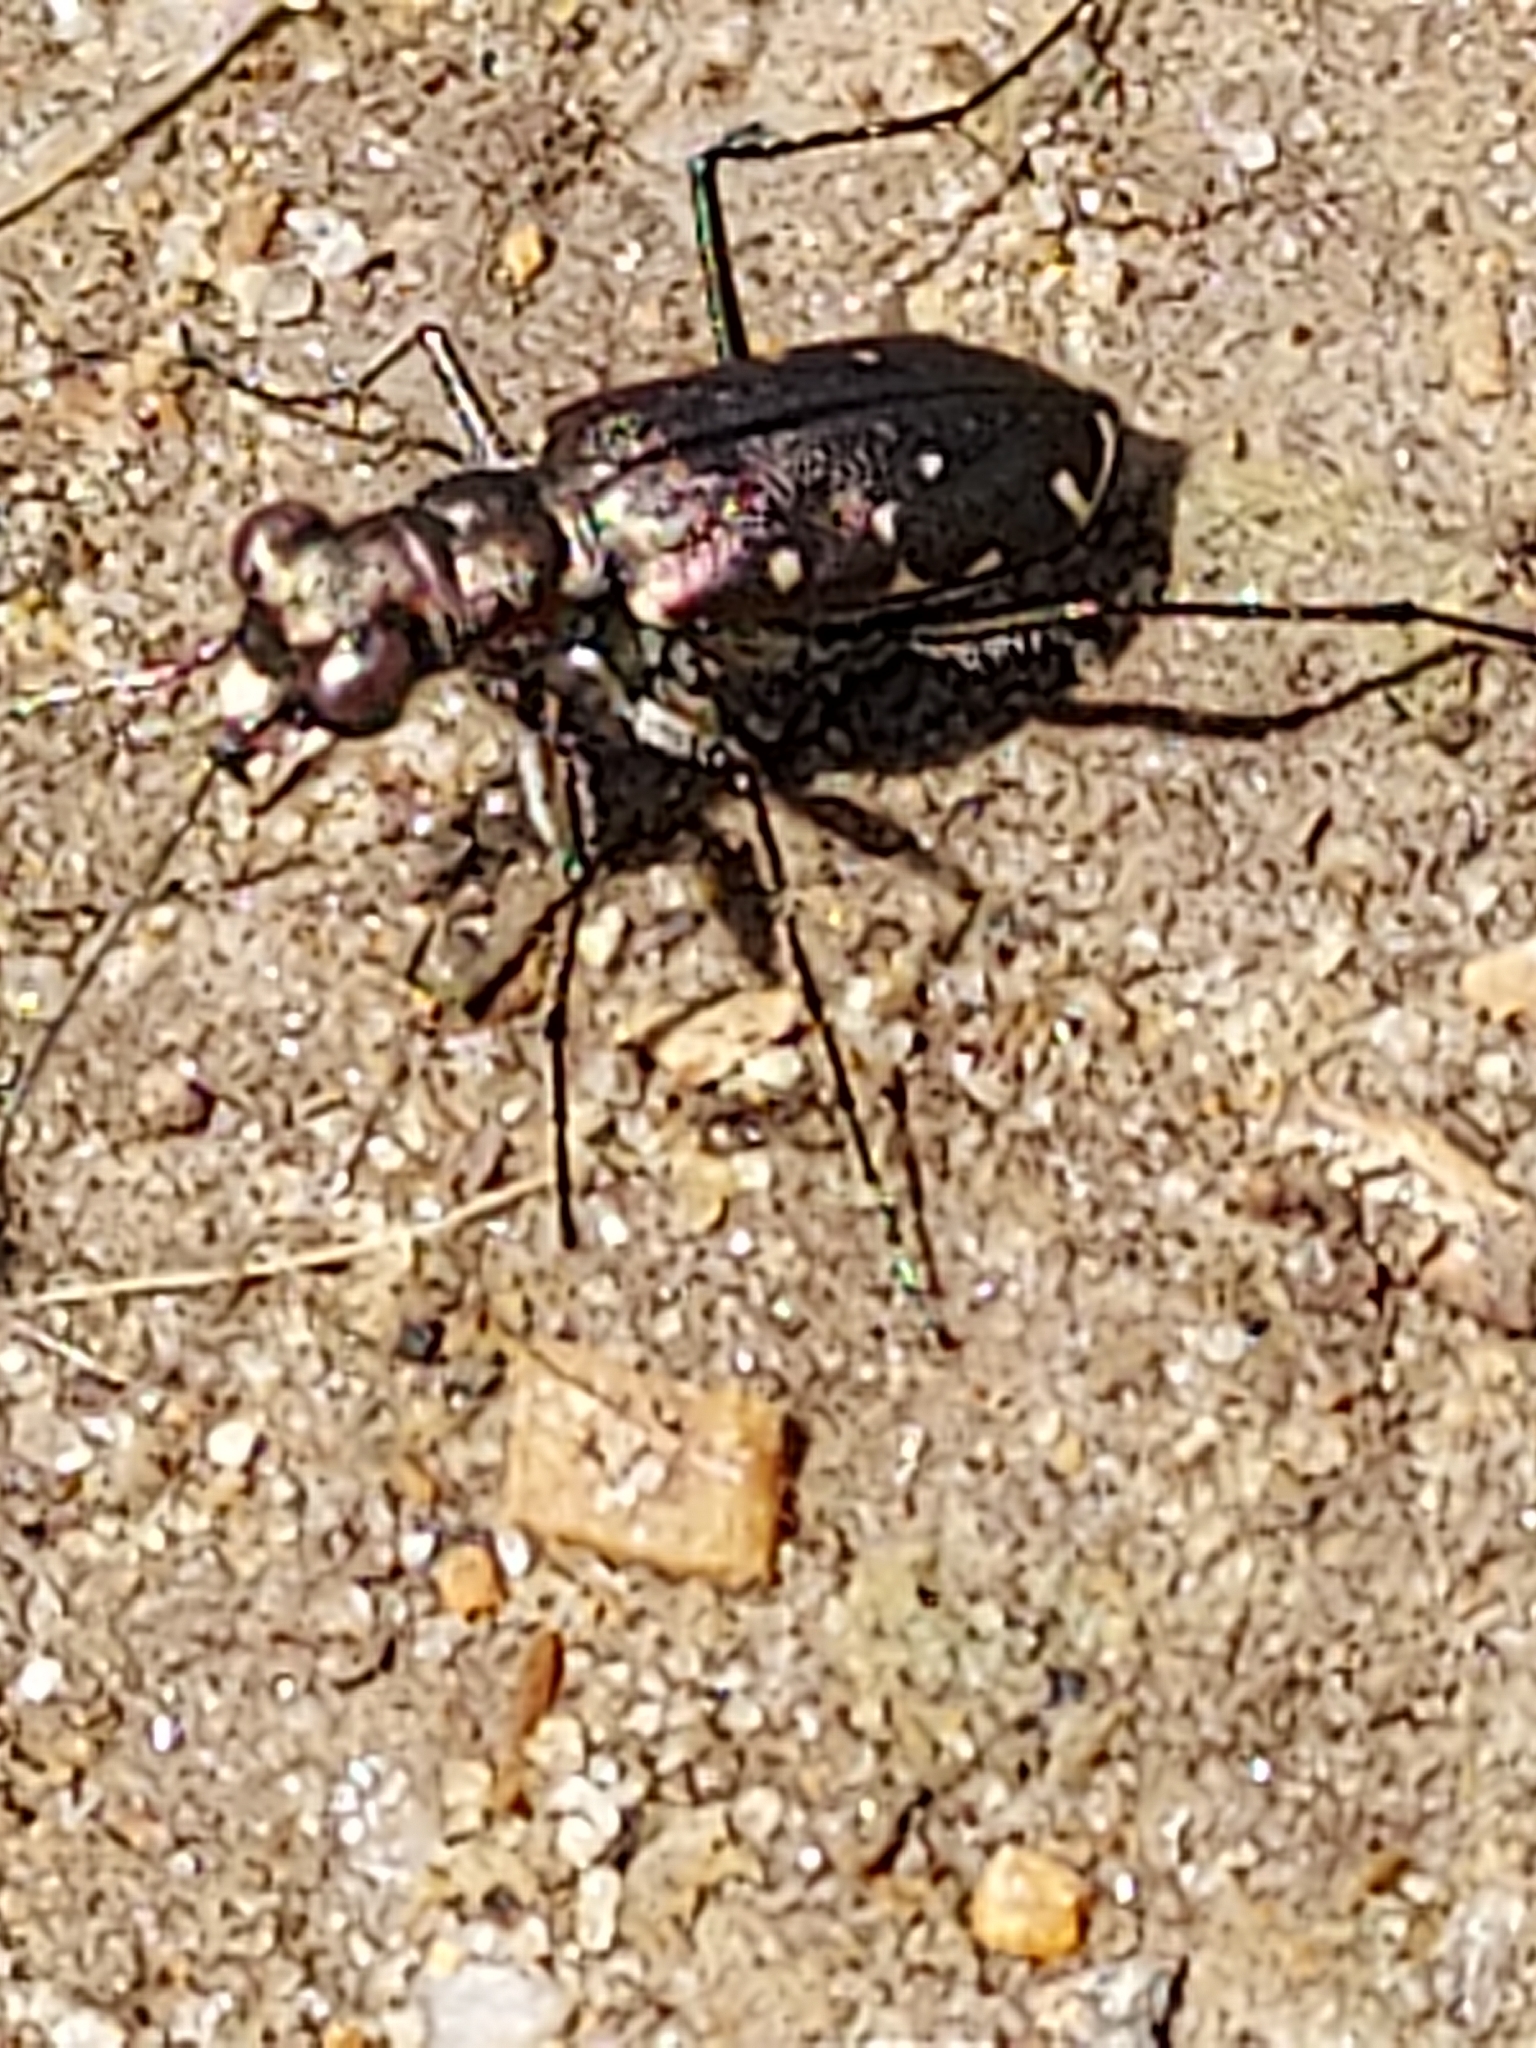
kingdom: Animalia
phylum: Arthropoda
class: Insecta
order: Coleoptera
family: Carabidae
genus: Cicindela
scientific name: Cicindela punctulata
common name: Punctured tiger beetle
